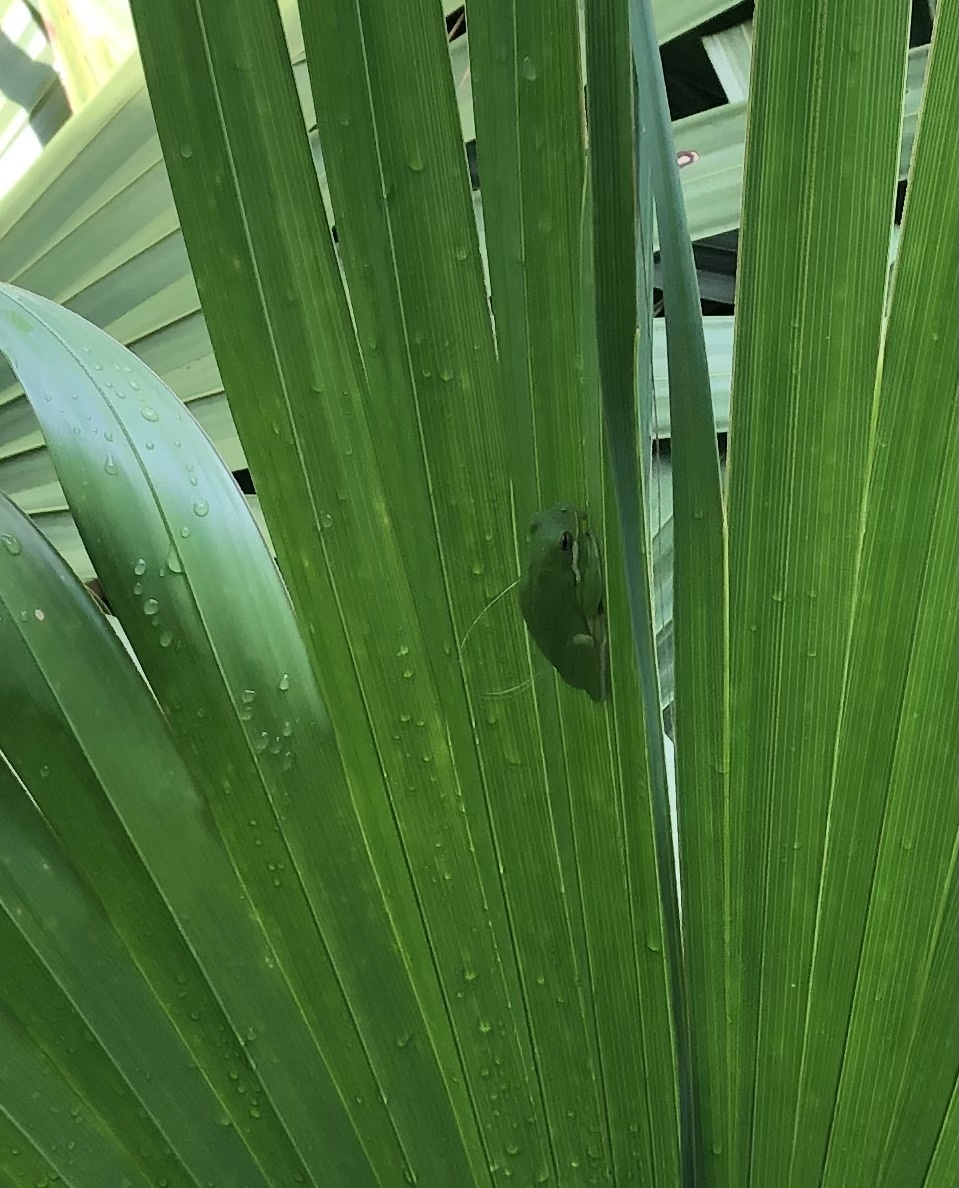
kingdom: Animalia
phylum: Chordata
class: Amphibia
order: Anura
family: Hylidae
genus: Dryophytes
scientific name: Dryophytes cinereus
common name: Green treefrog
